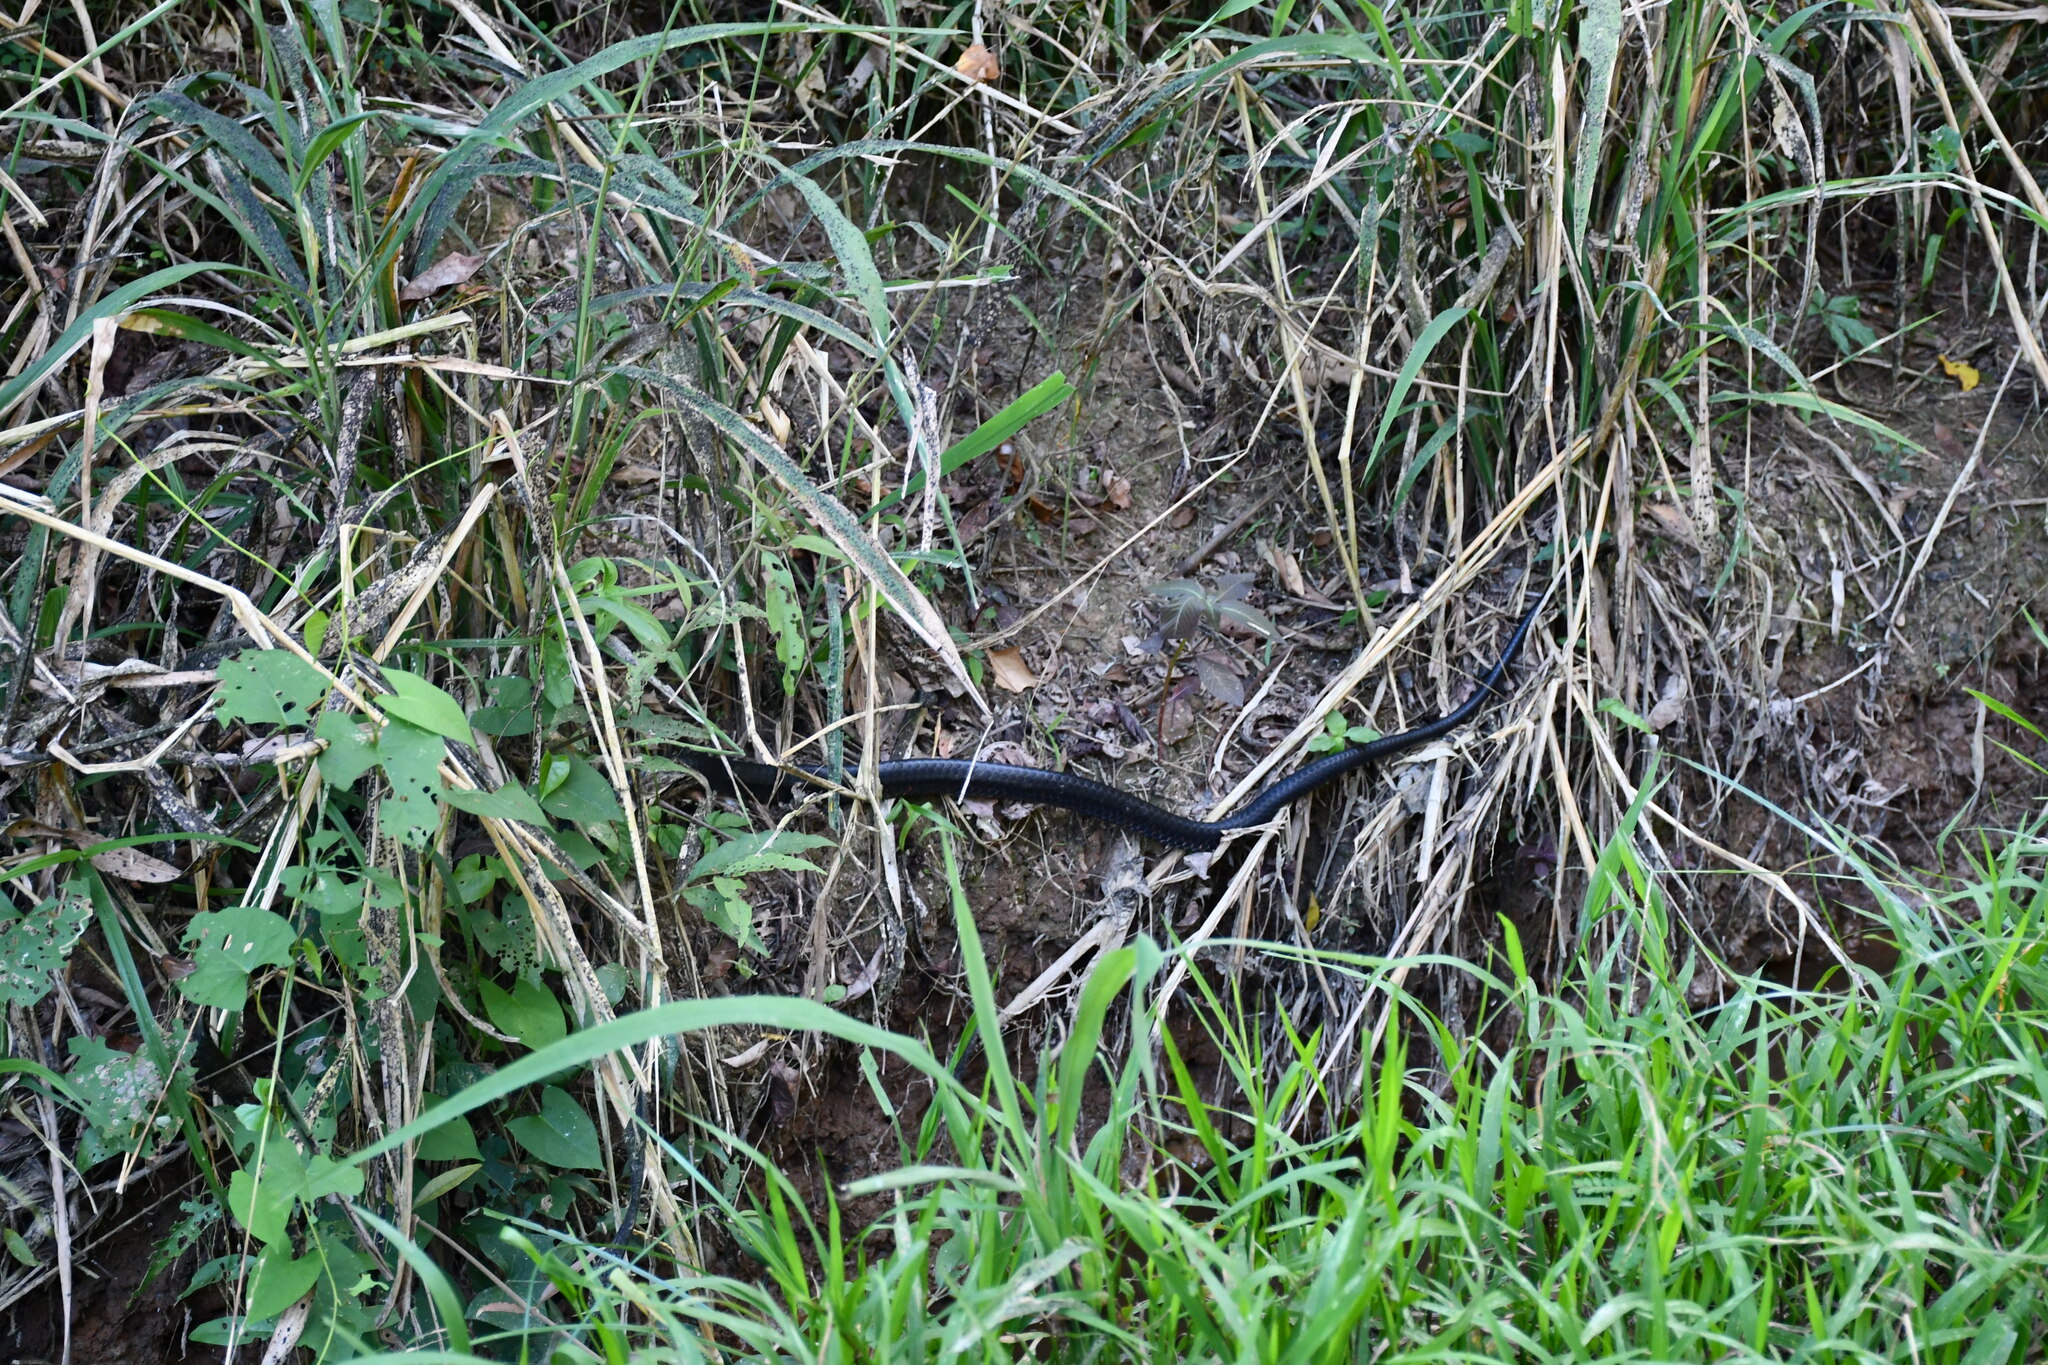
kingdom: Animalia
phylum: Chordata
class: Squamata
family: Colubridae
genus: Spilotes
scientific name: Spilotes pullatus
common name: Chicken snake
